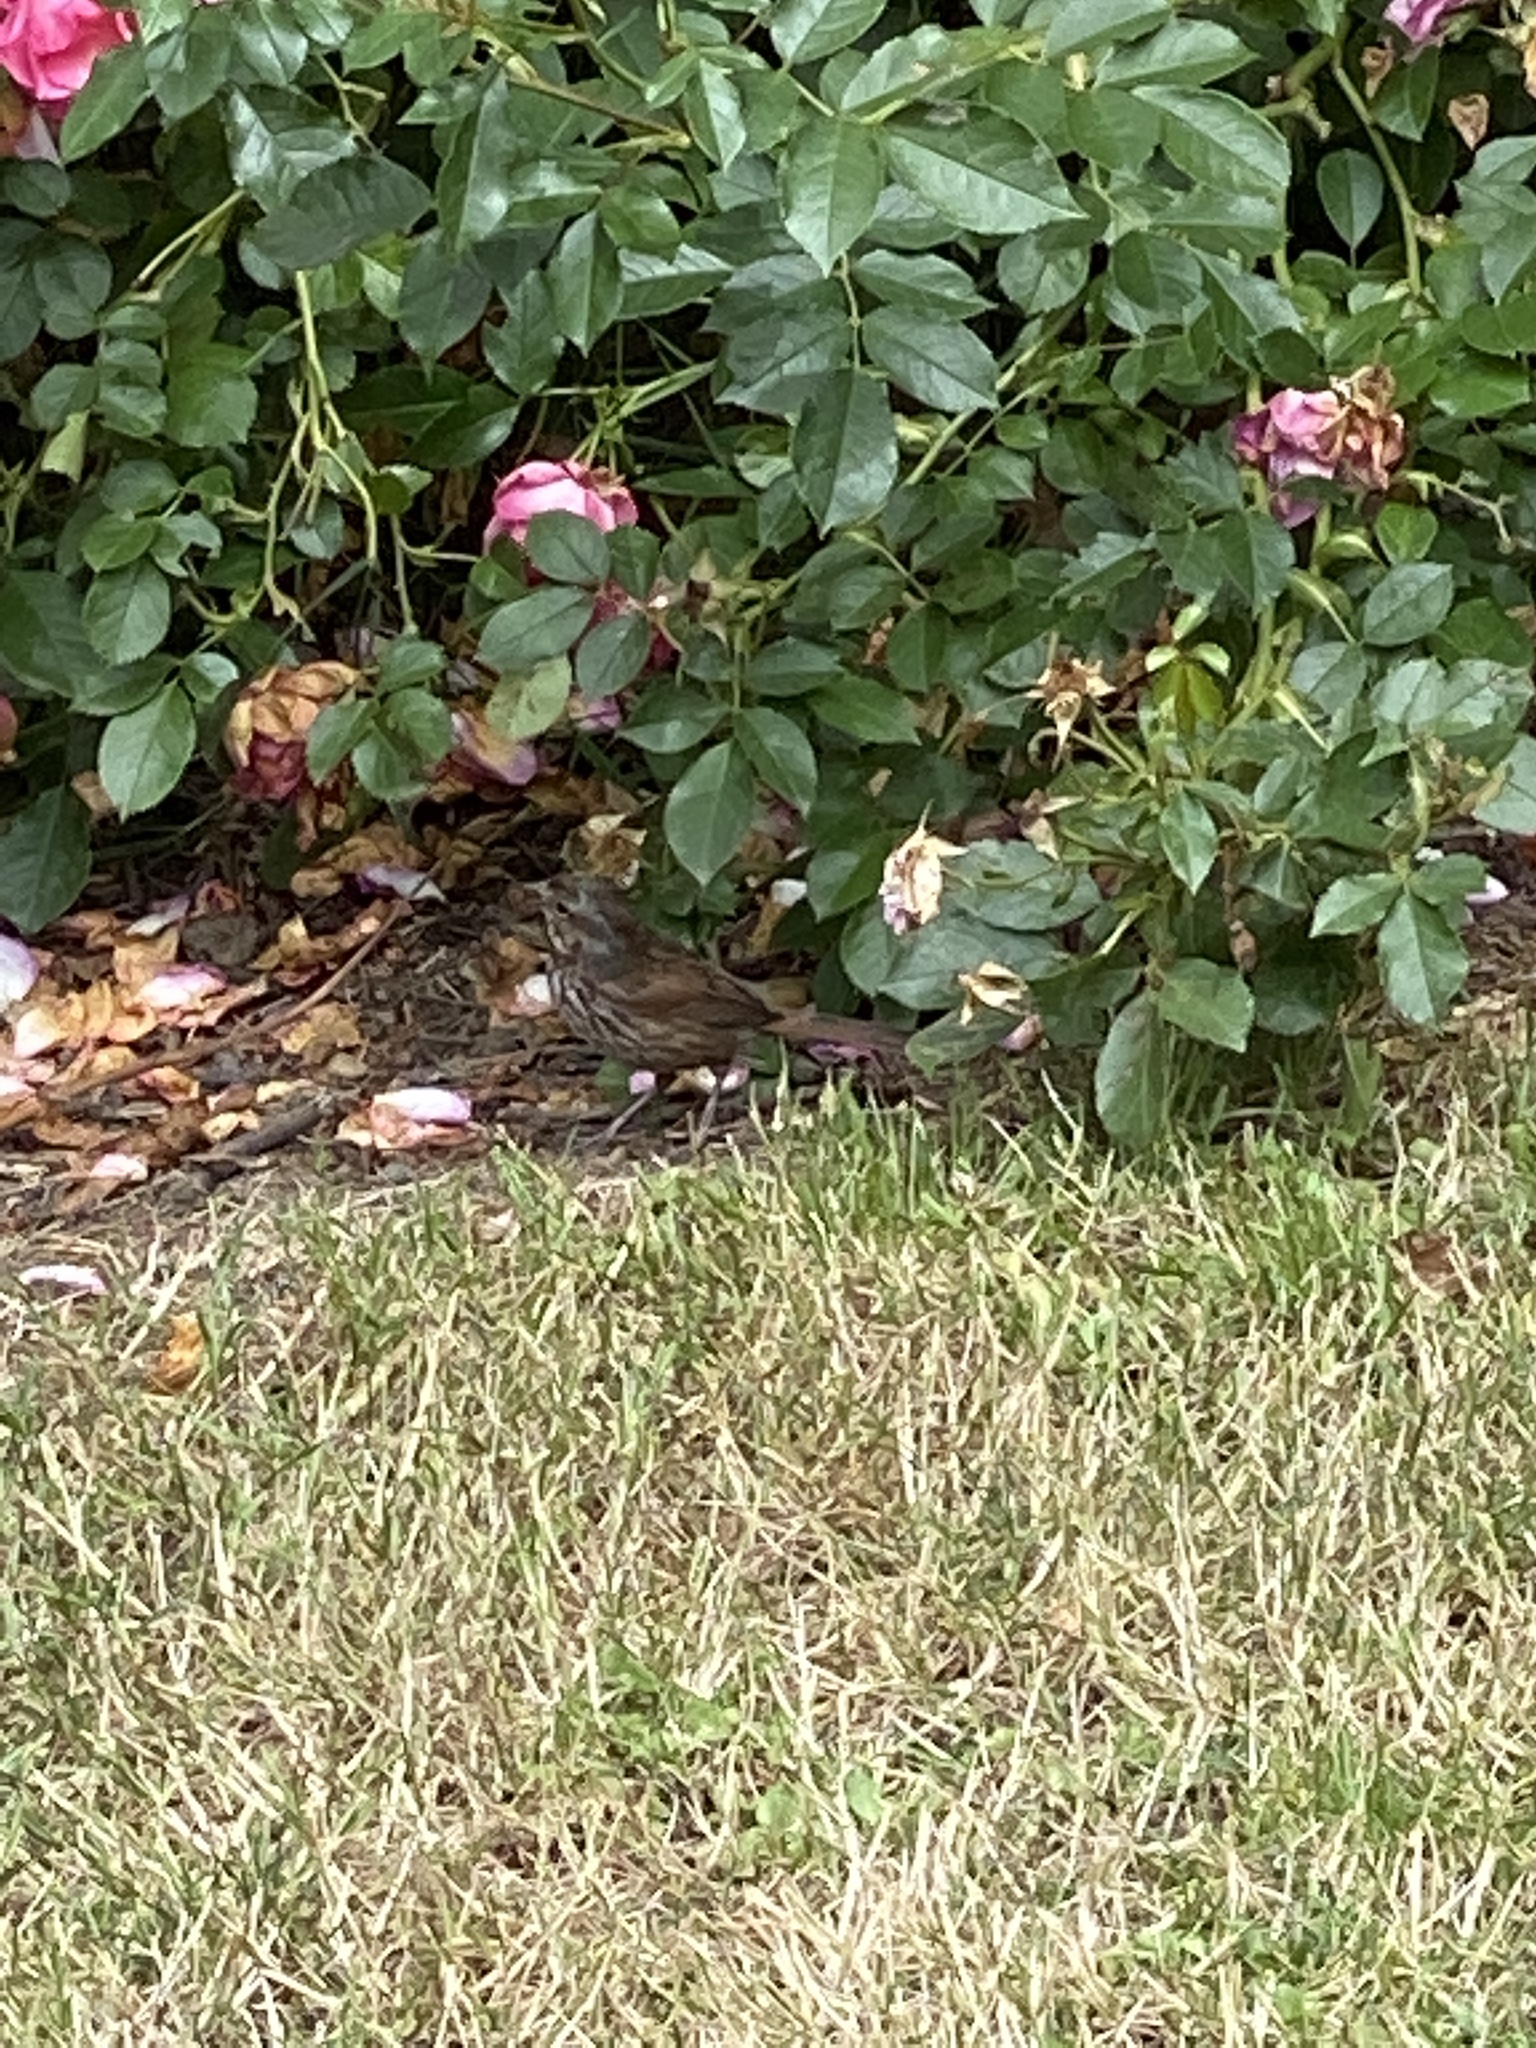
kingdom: Animalia
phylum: Chordata
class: Aves
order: Passeriformes
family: Passerellidae
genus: Melospiza
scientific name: Melospiza melodia
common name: Song sparrow
